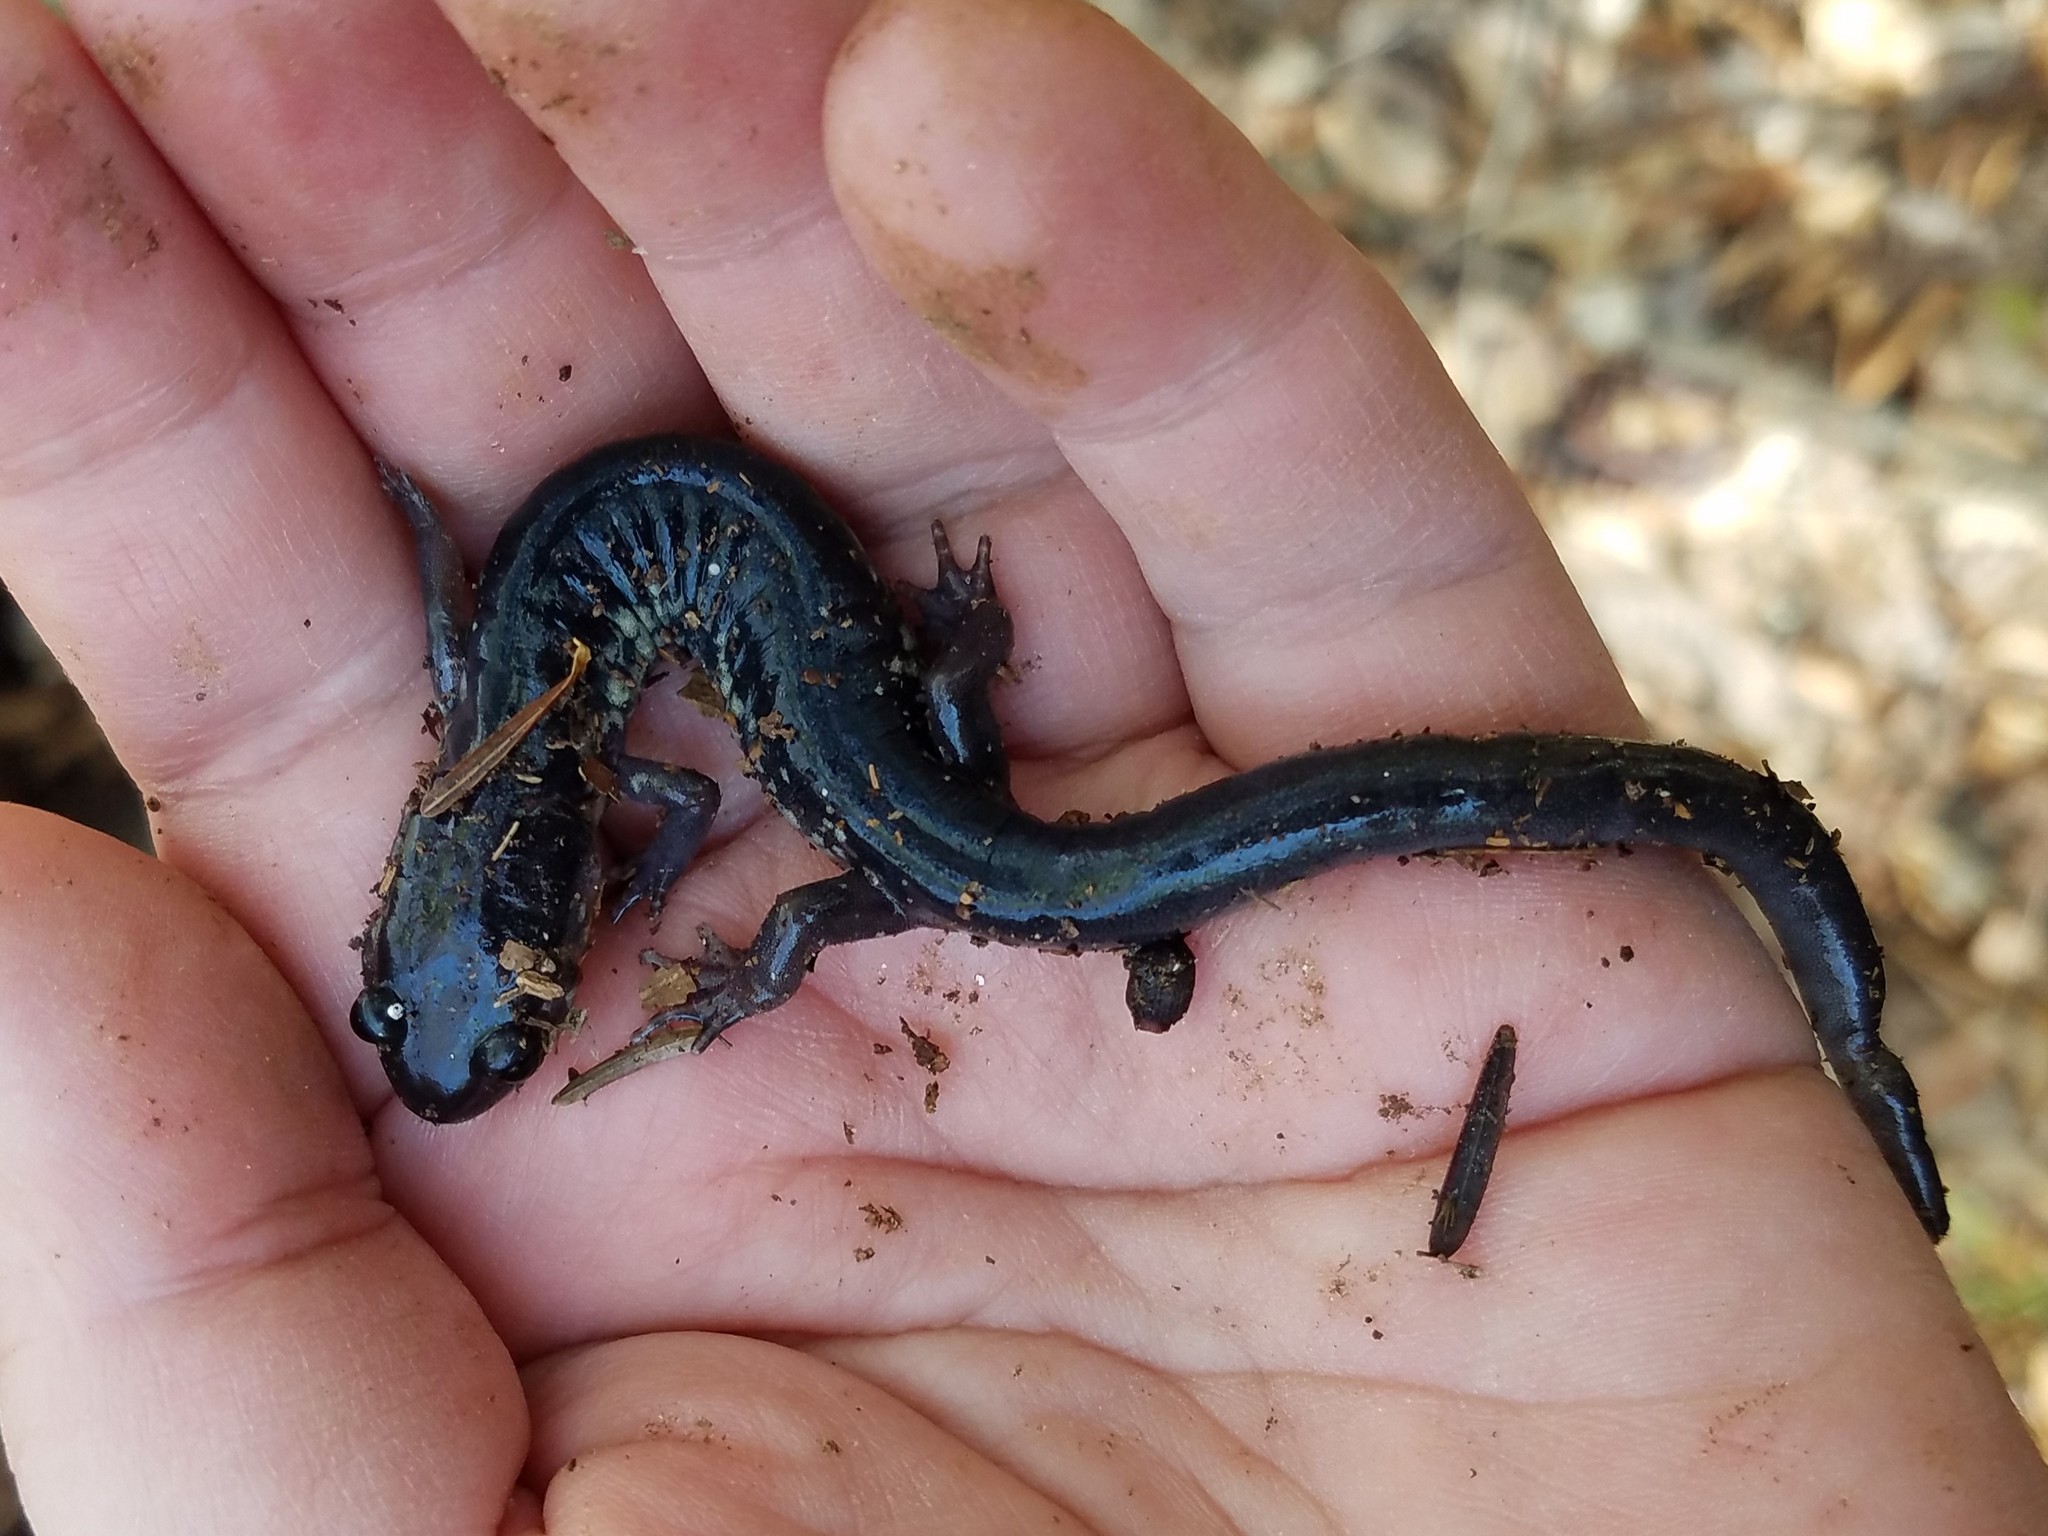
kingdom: Animalia
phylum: Chordata
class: Amphibia
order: Caudata
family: Plethodontidae
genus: Plethodon
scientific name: Plethodon chattahoochee
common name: Chattahoochee slimy salamander
